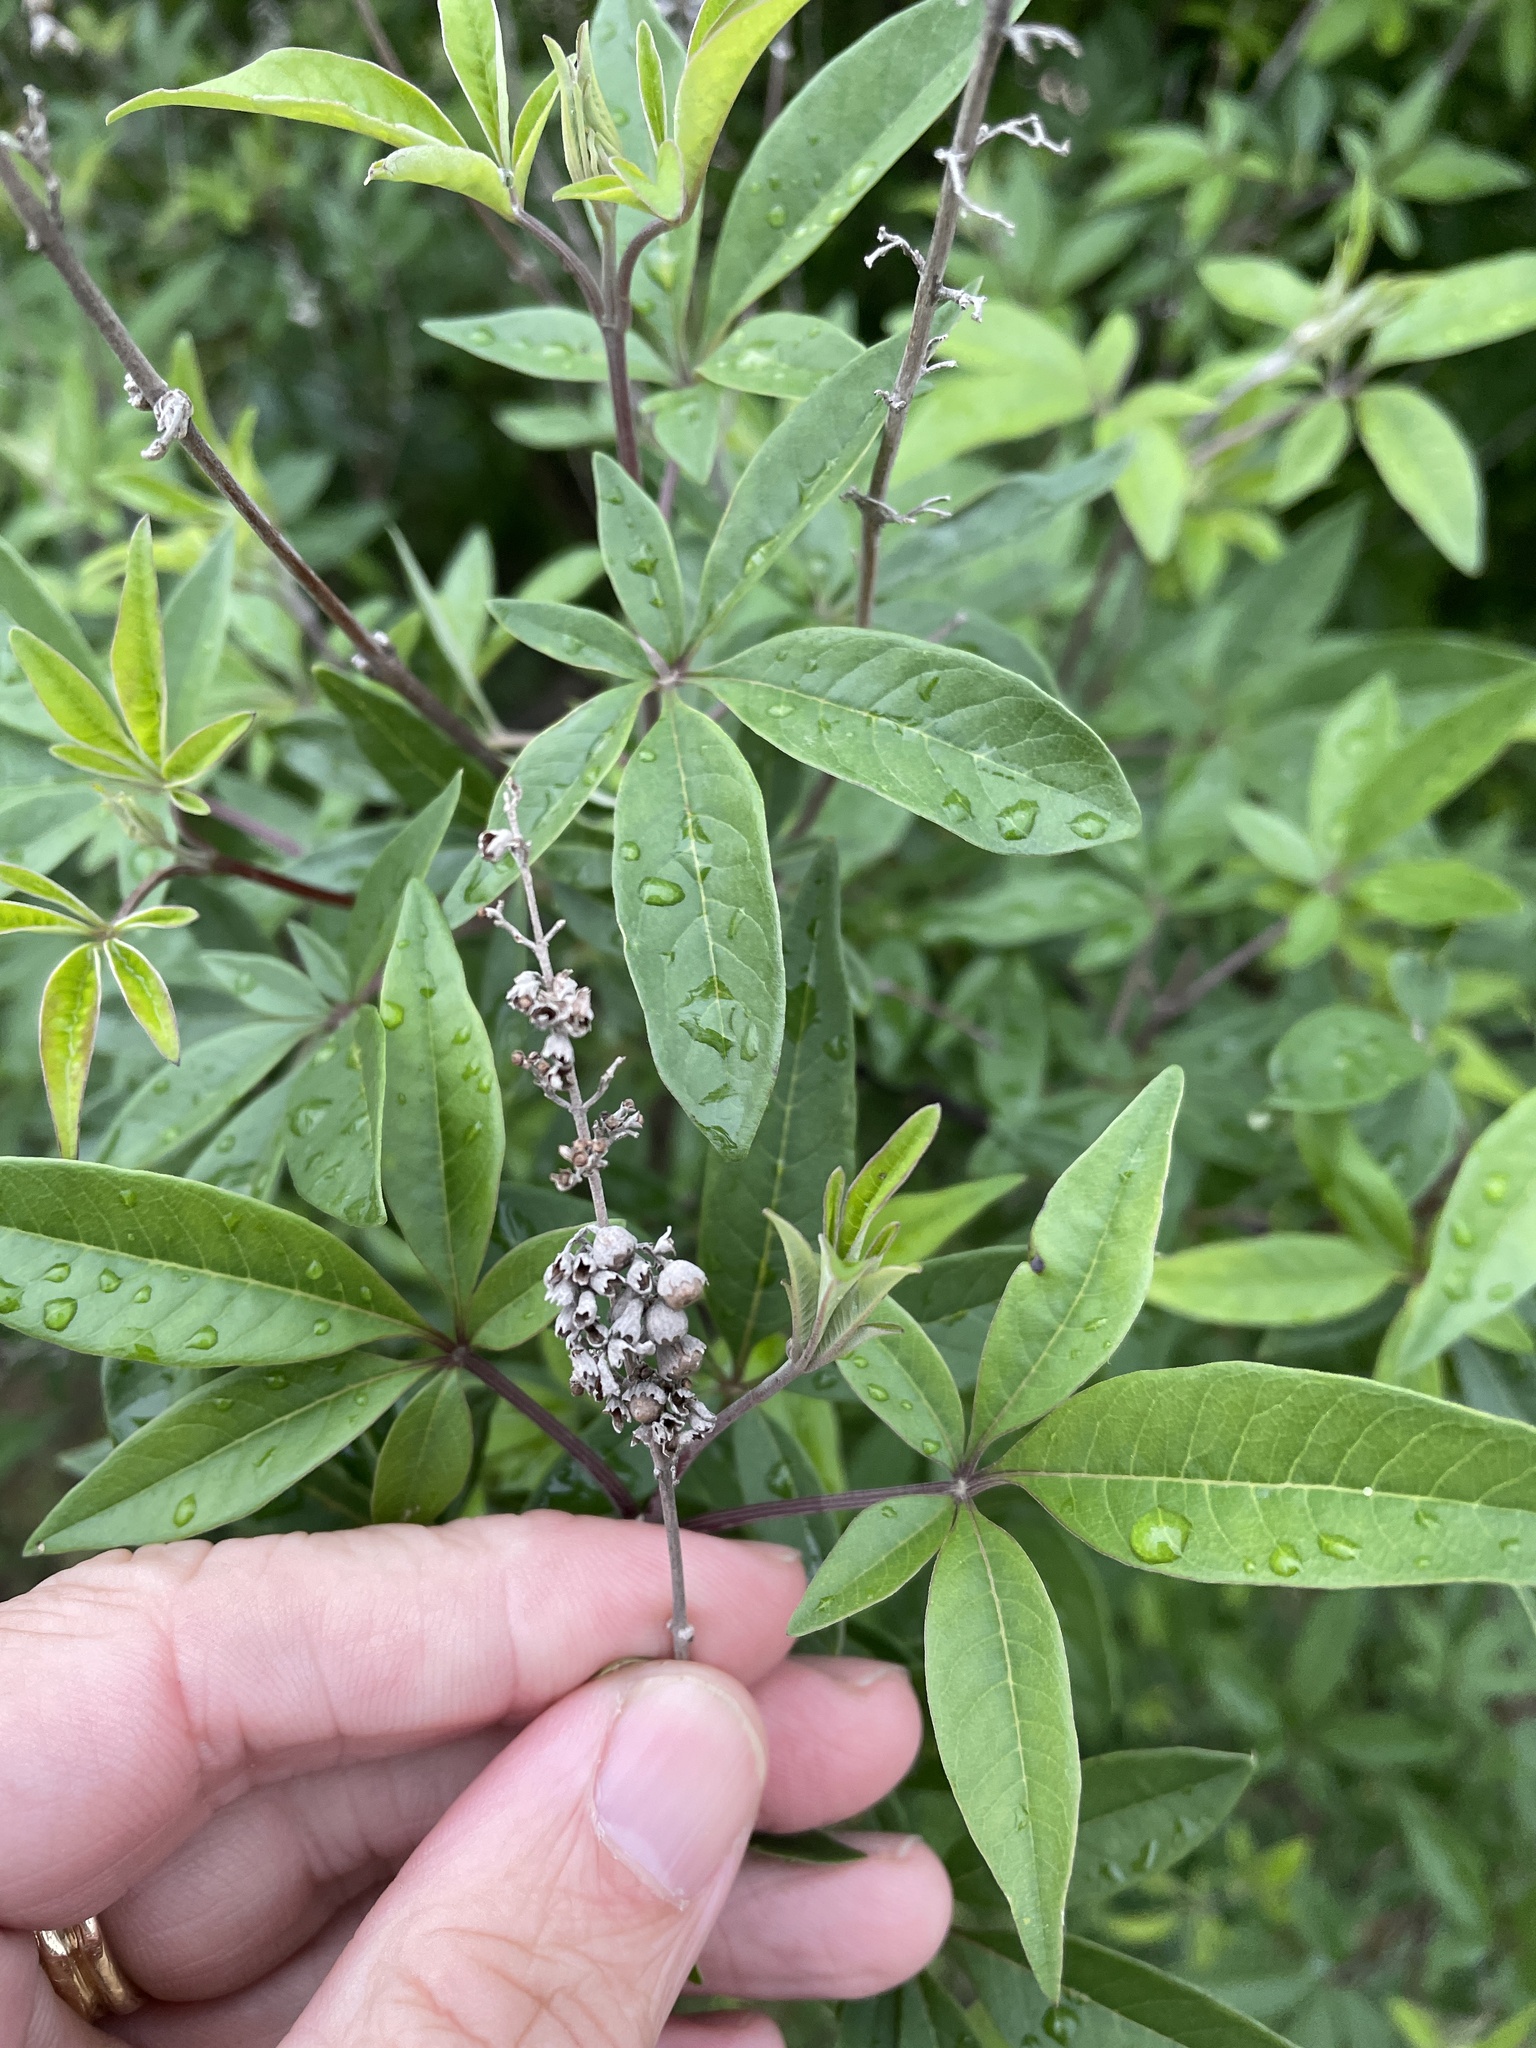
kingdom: Plantae
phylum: Tracheophyta
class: Magnoliopsida
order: Lamiales
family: Lamiaceae
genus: Vitex
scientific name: Vitex agnus-castus
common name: Chasteberry
